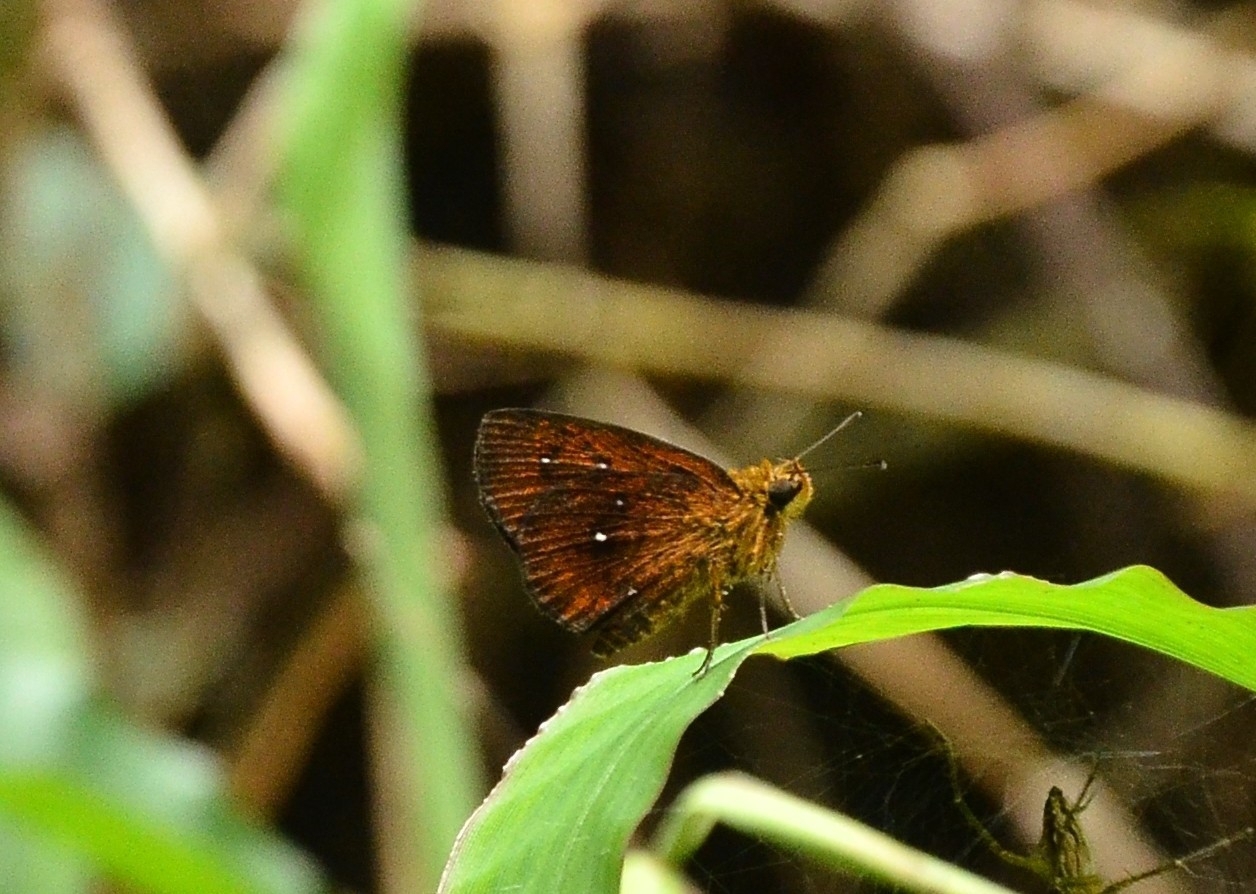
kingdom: Animalia
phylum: Arthropoda
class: Insecta
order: Lepidoptera
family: Hesperiidae
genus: Iambrix
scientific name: Iambrix salsala
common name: Chestnut bob
